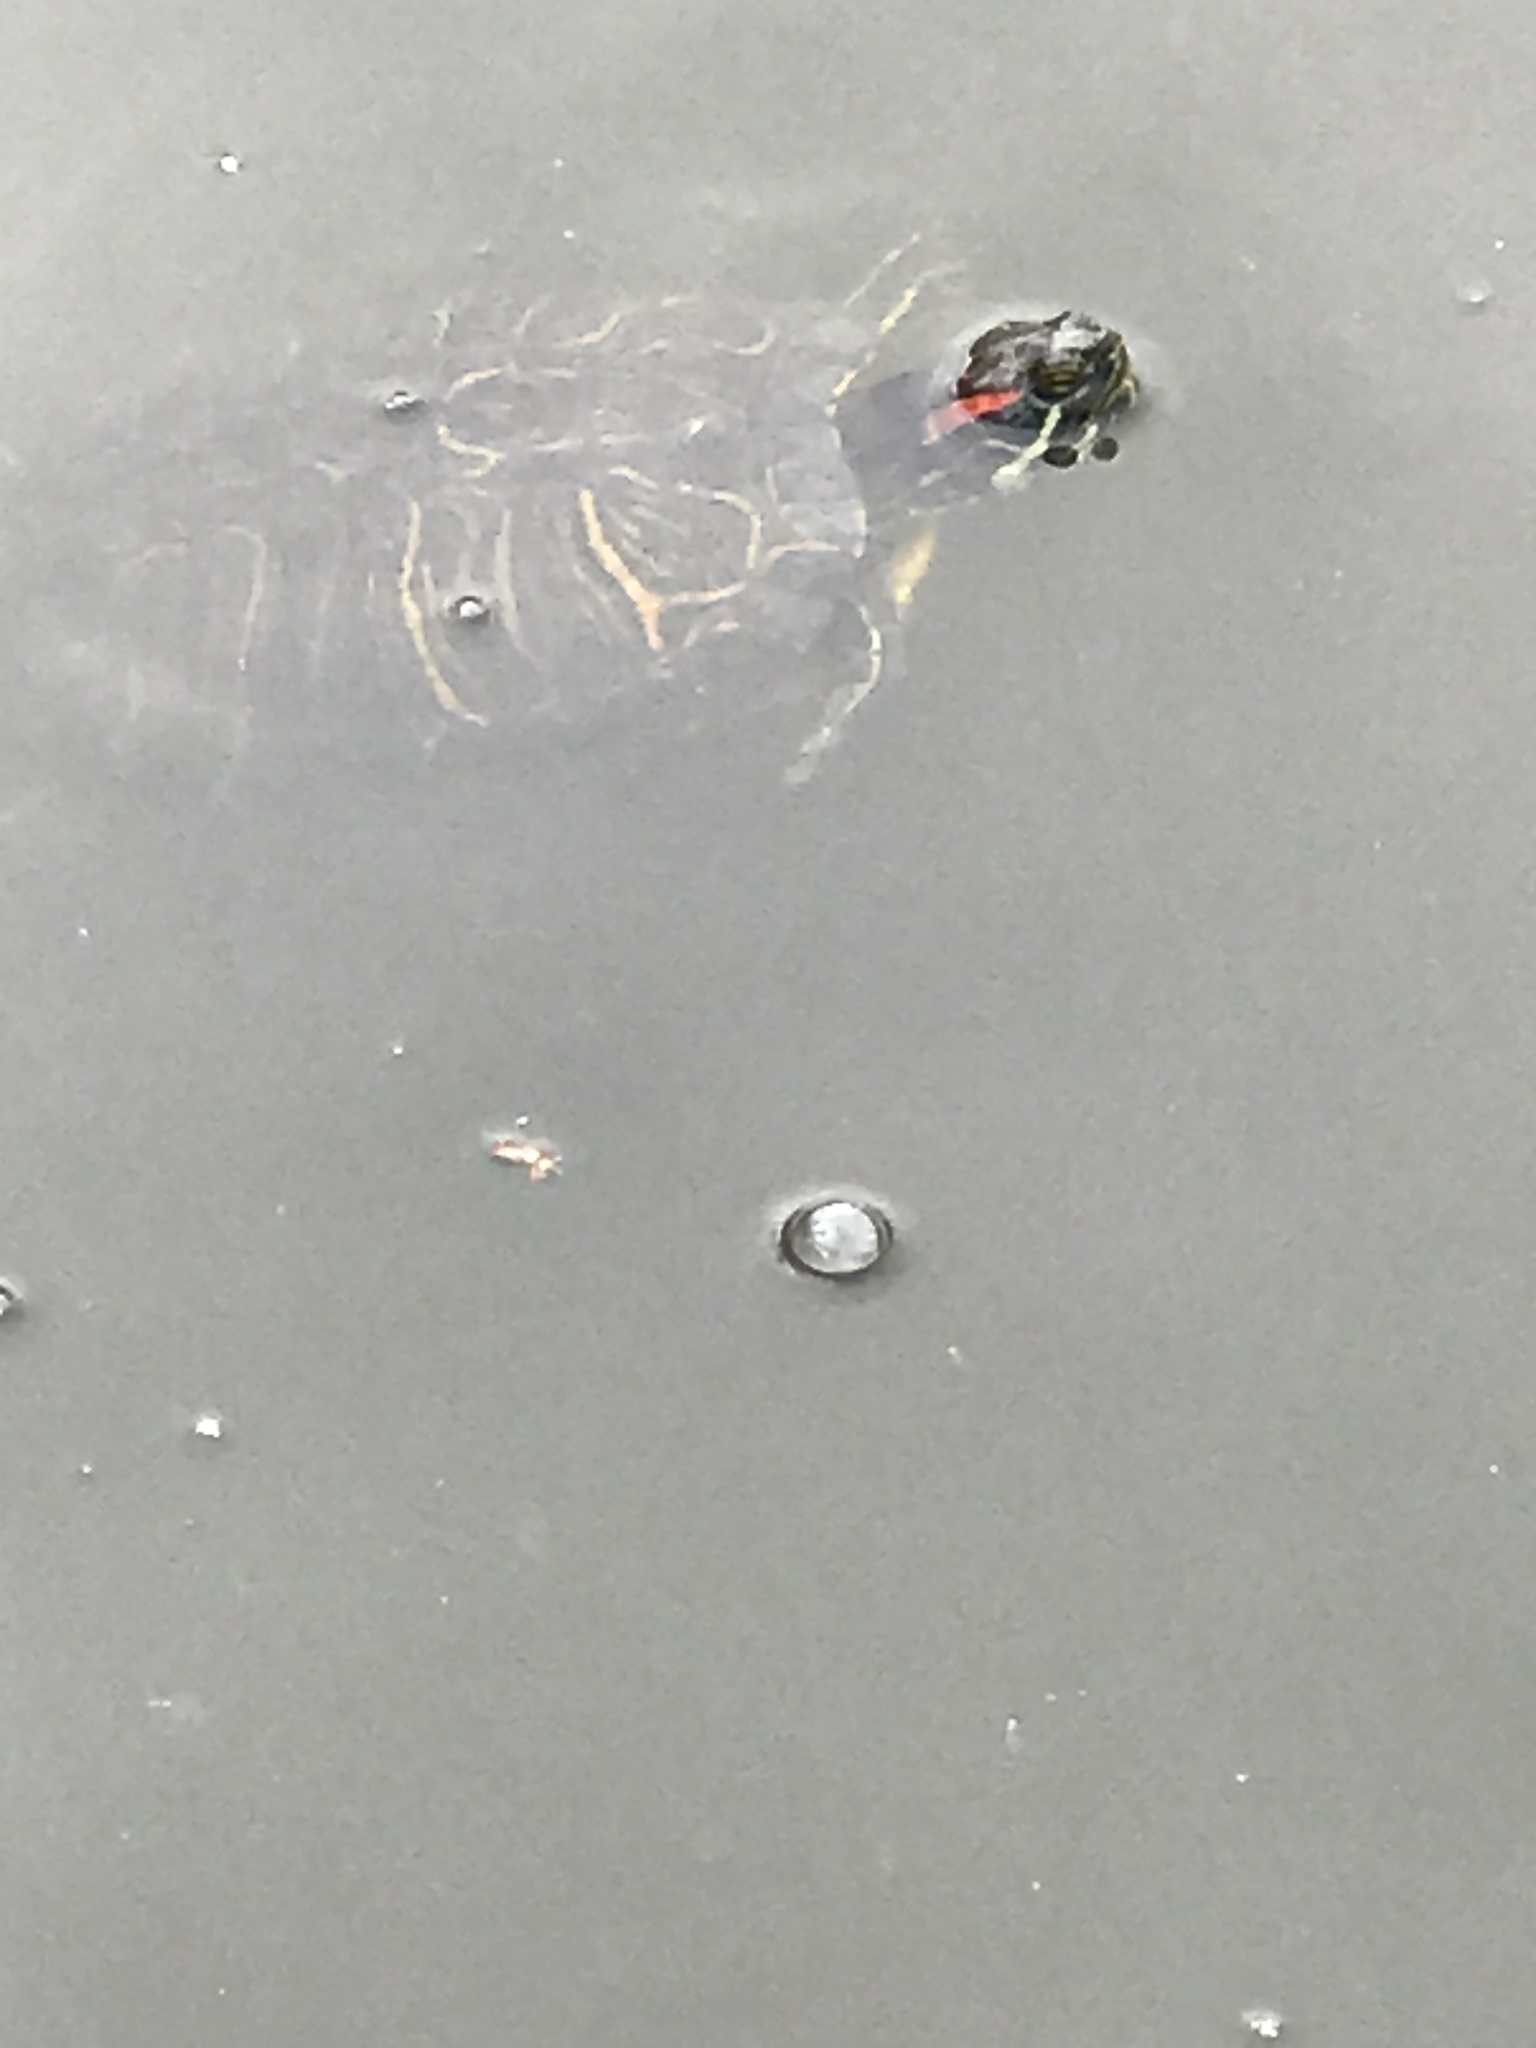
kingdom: Animalia
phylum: Chordata
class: Testudines
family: Emydidae
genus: Trachemys
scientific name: Trachemys scripta
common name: Slider
